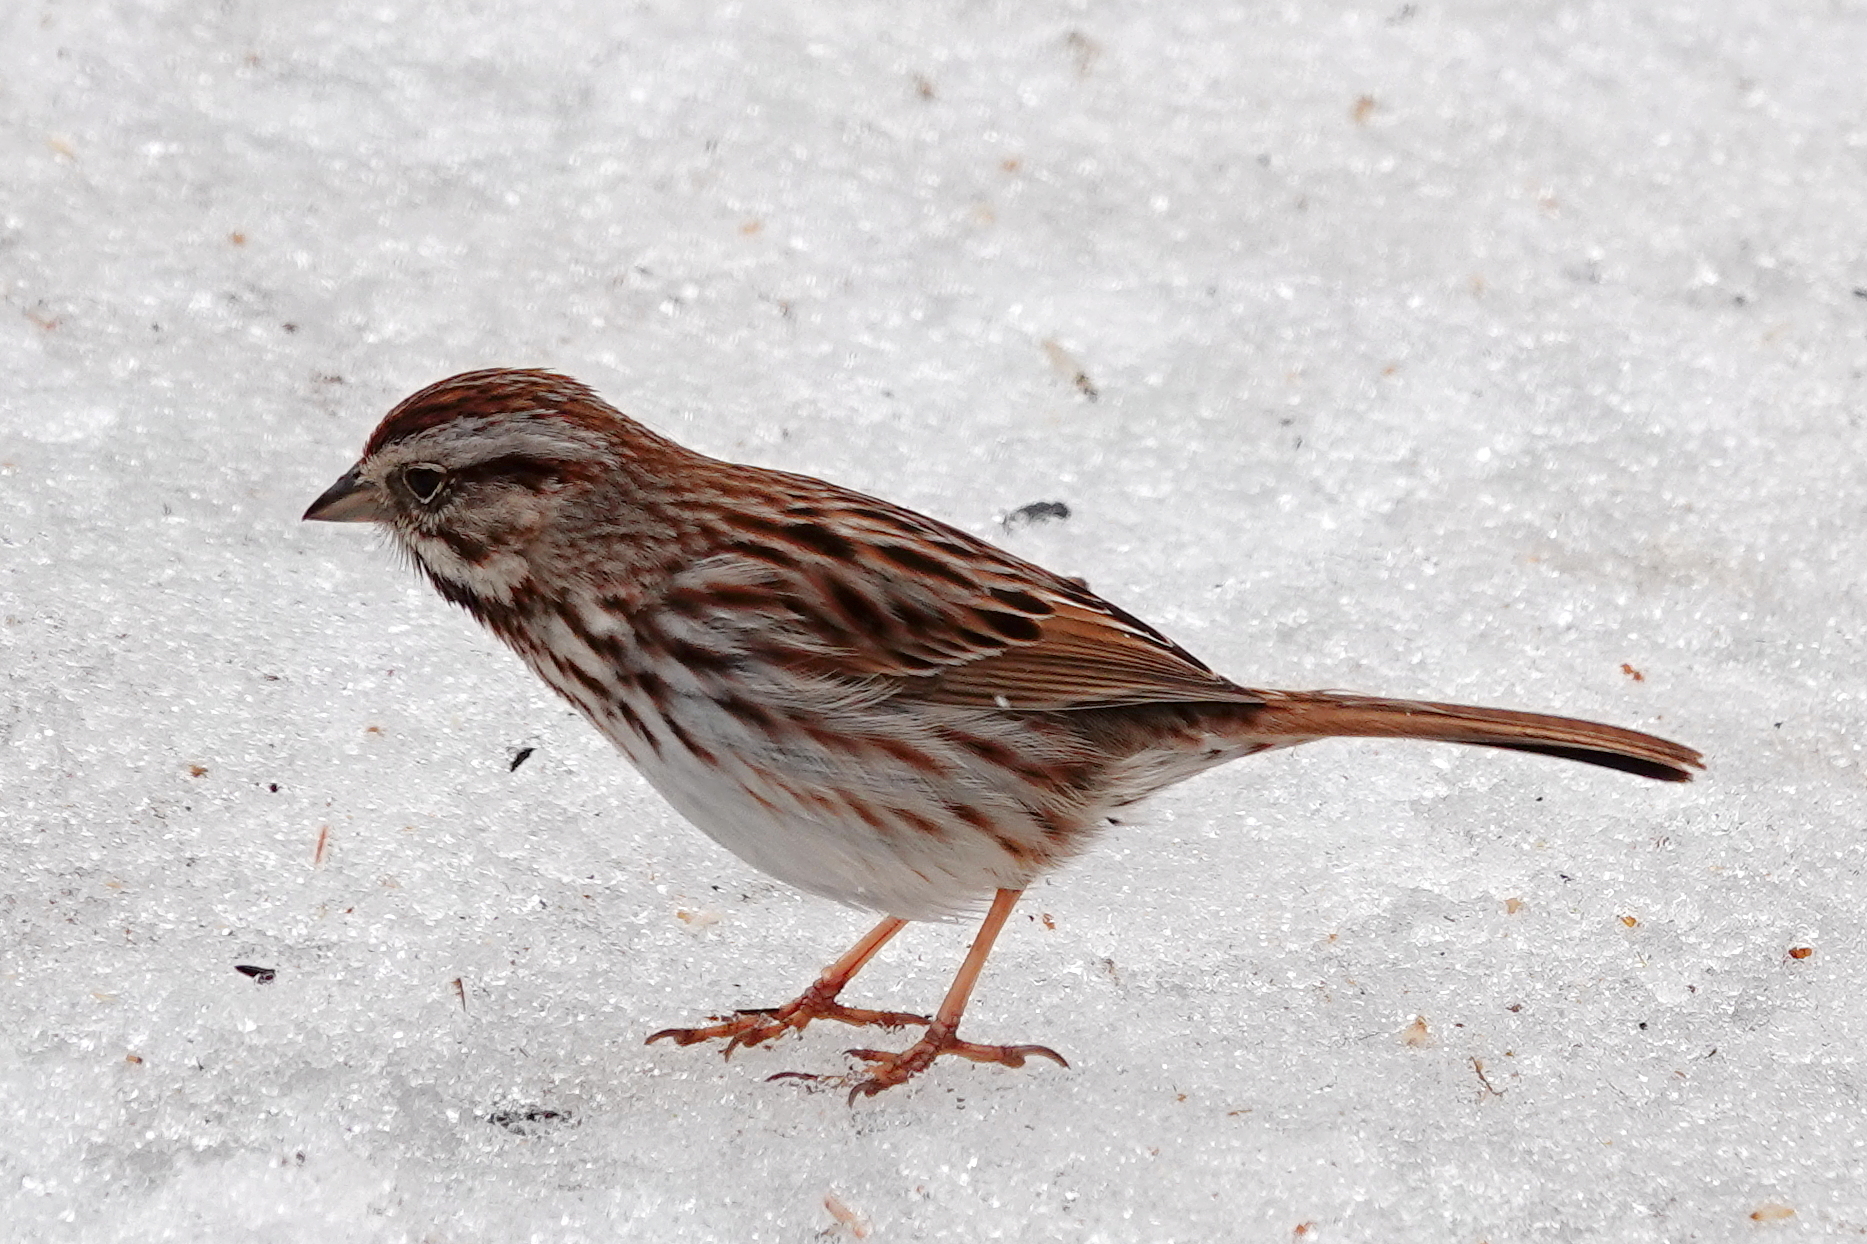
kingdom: Animalia
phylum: Chordata
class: Aves
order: Passeriformes
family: Passerellidae
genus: Melospiza
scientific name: Melospiza melodia
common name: Song sparrow
